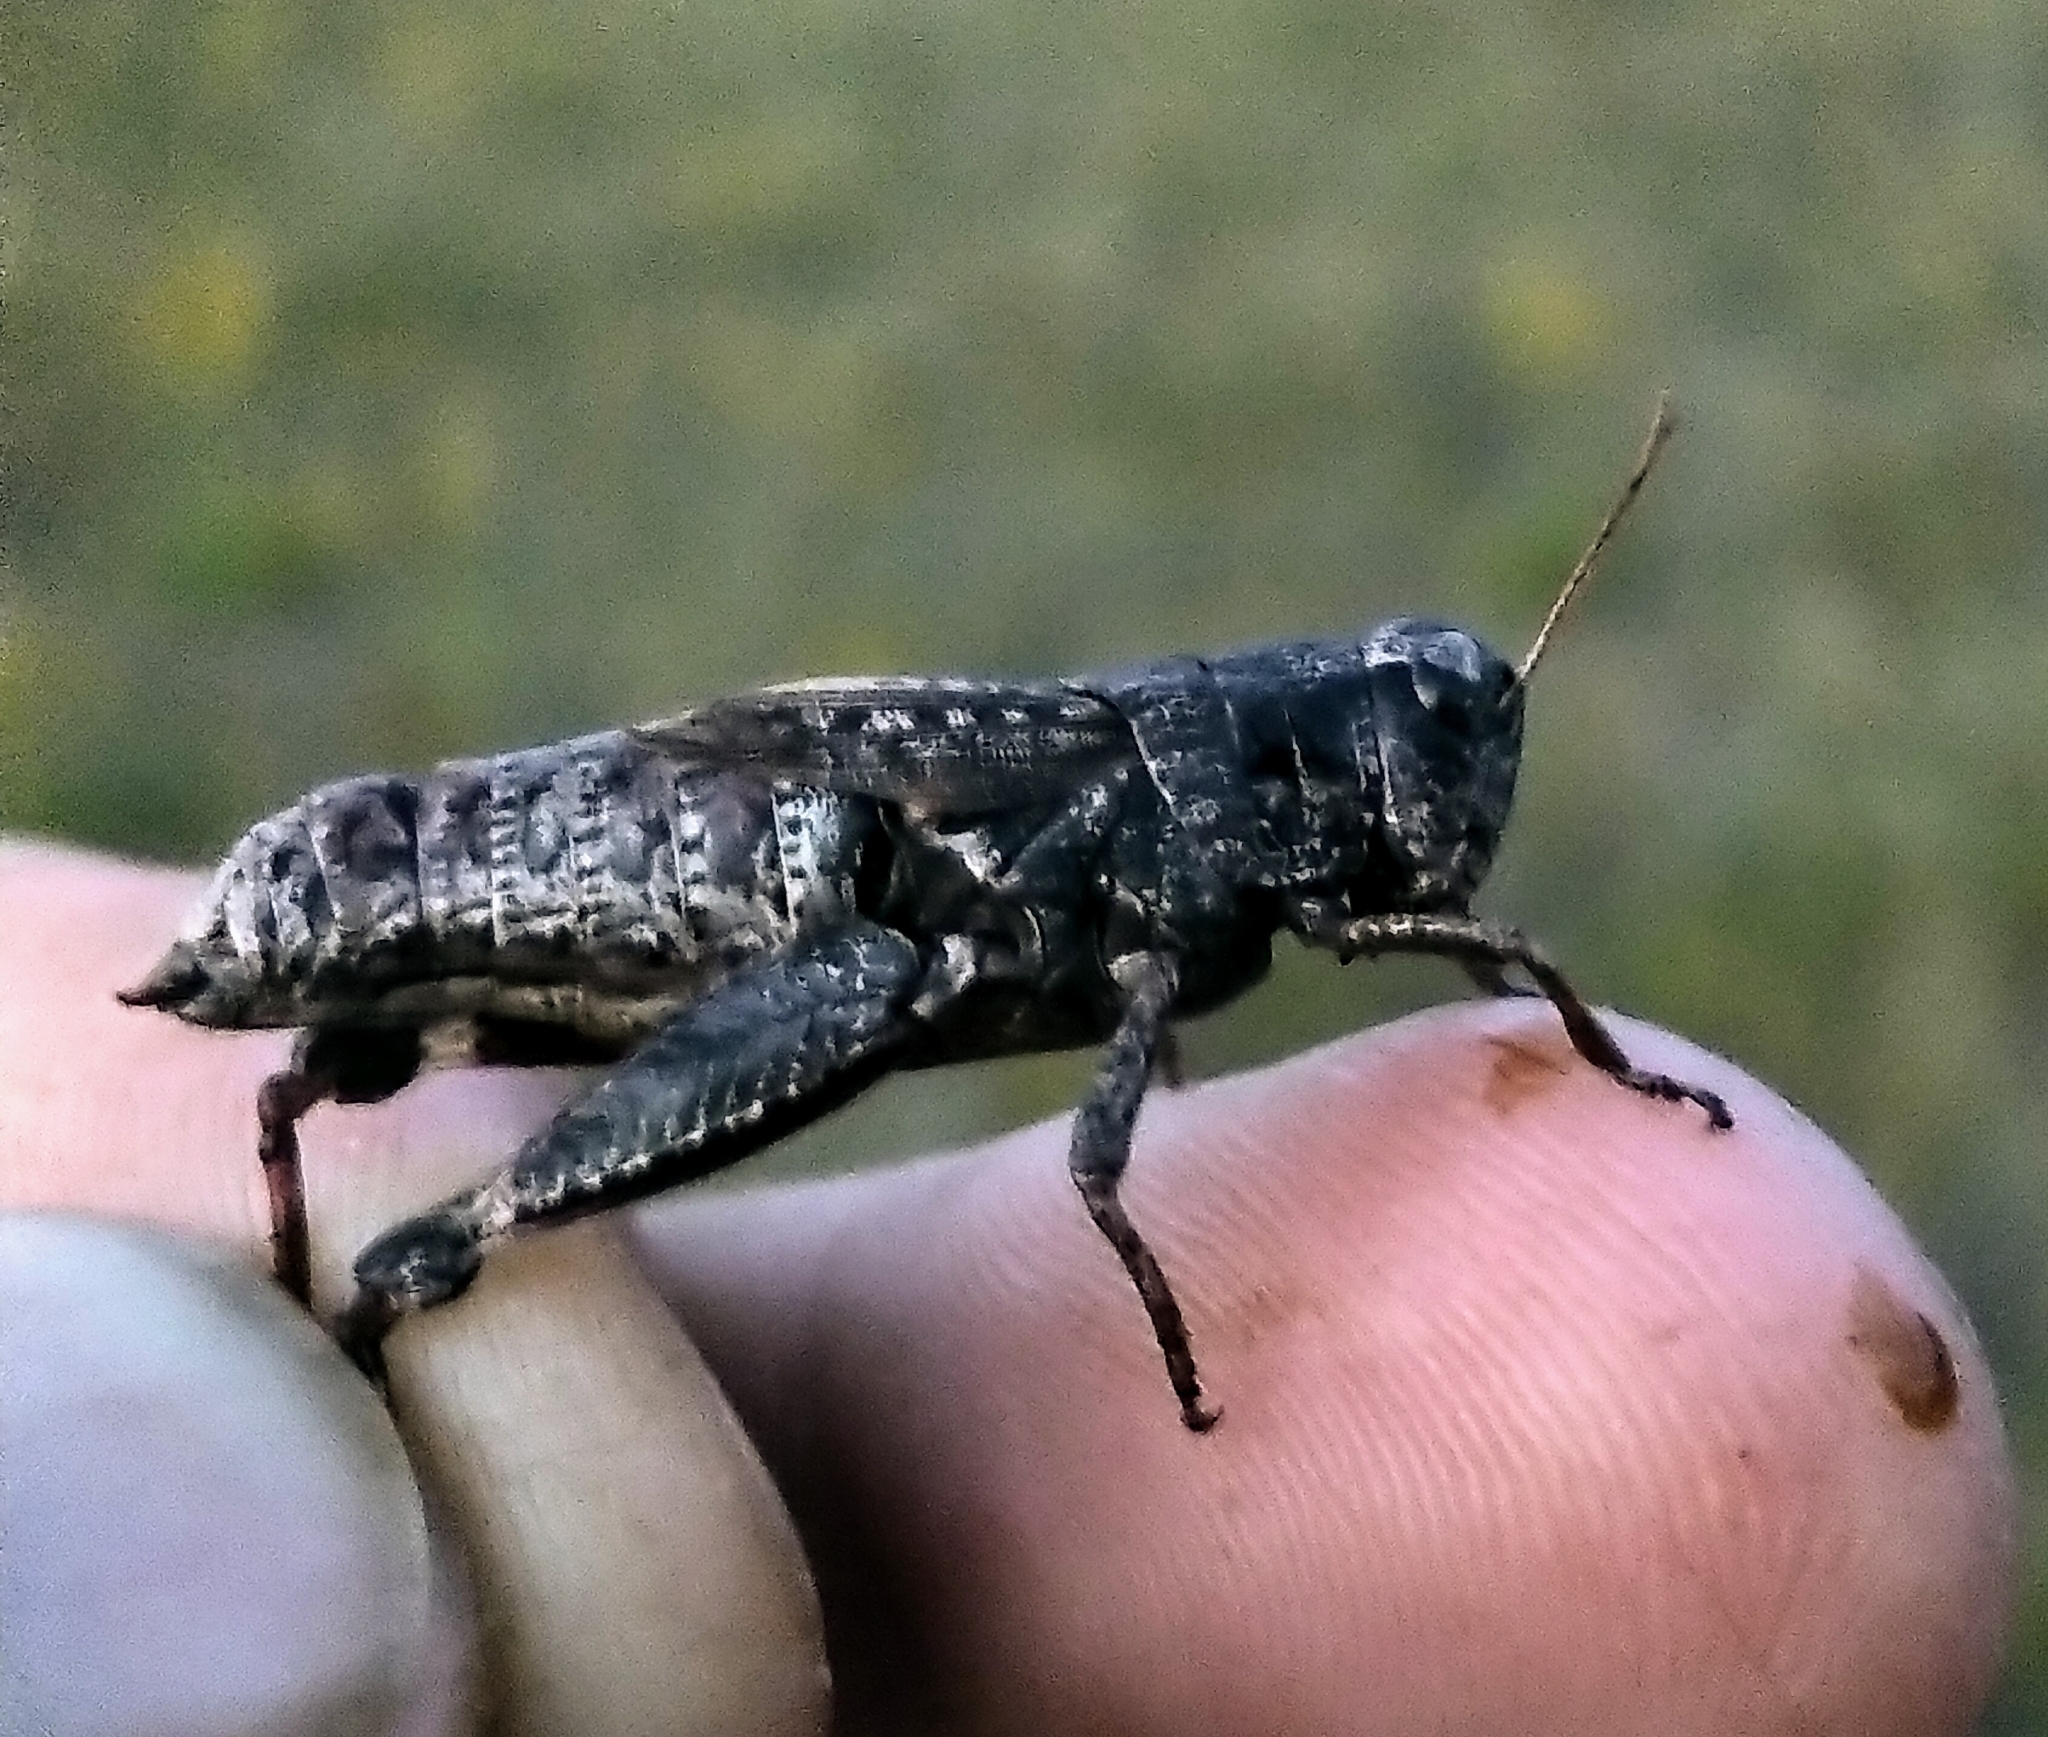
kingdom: Animalia
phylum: Arthropoda
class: Insecta
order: Orthoptera
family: Acrididae
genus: Melanoplus
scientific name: Melanoplus huroni
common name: Huron short-winged locust
